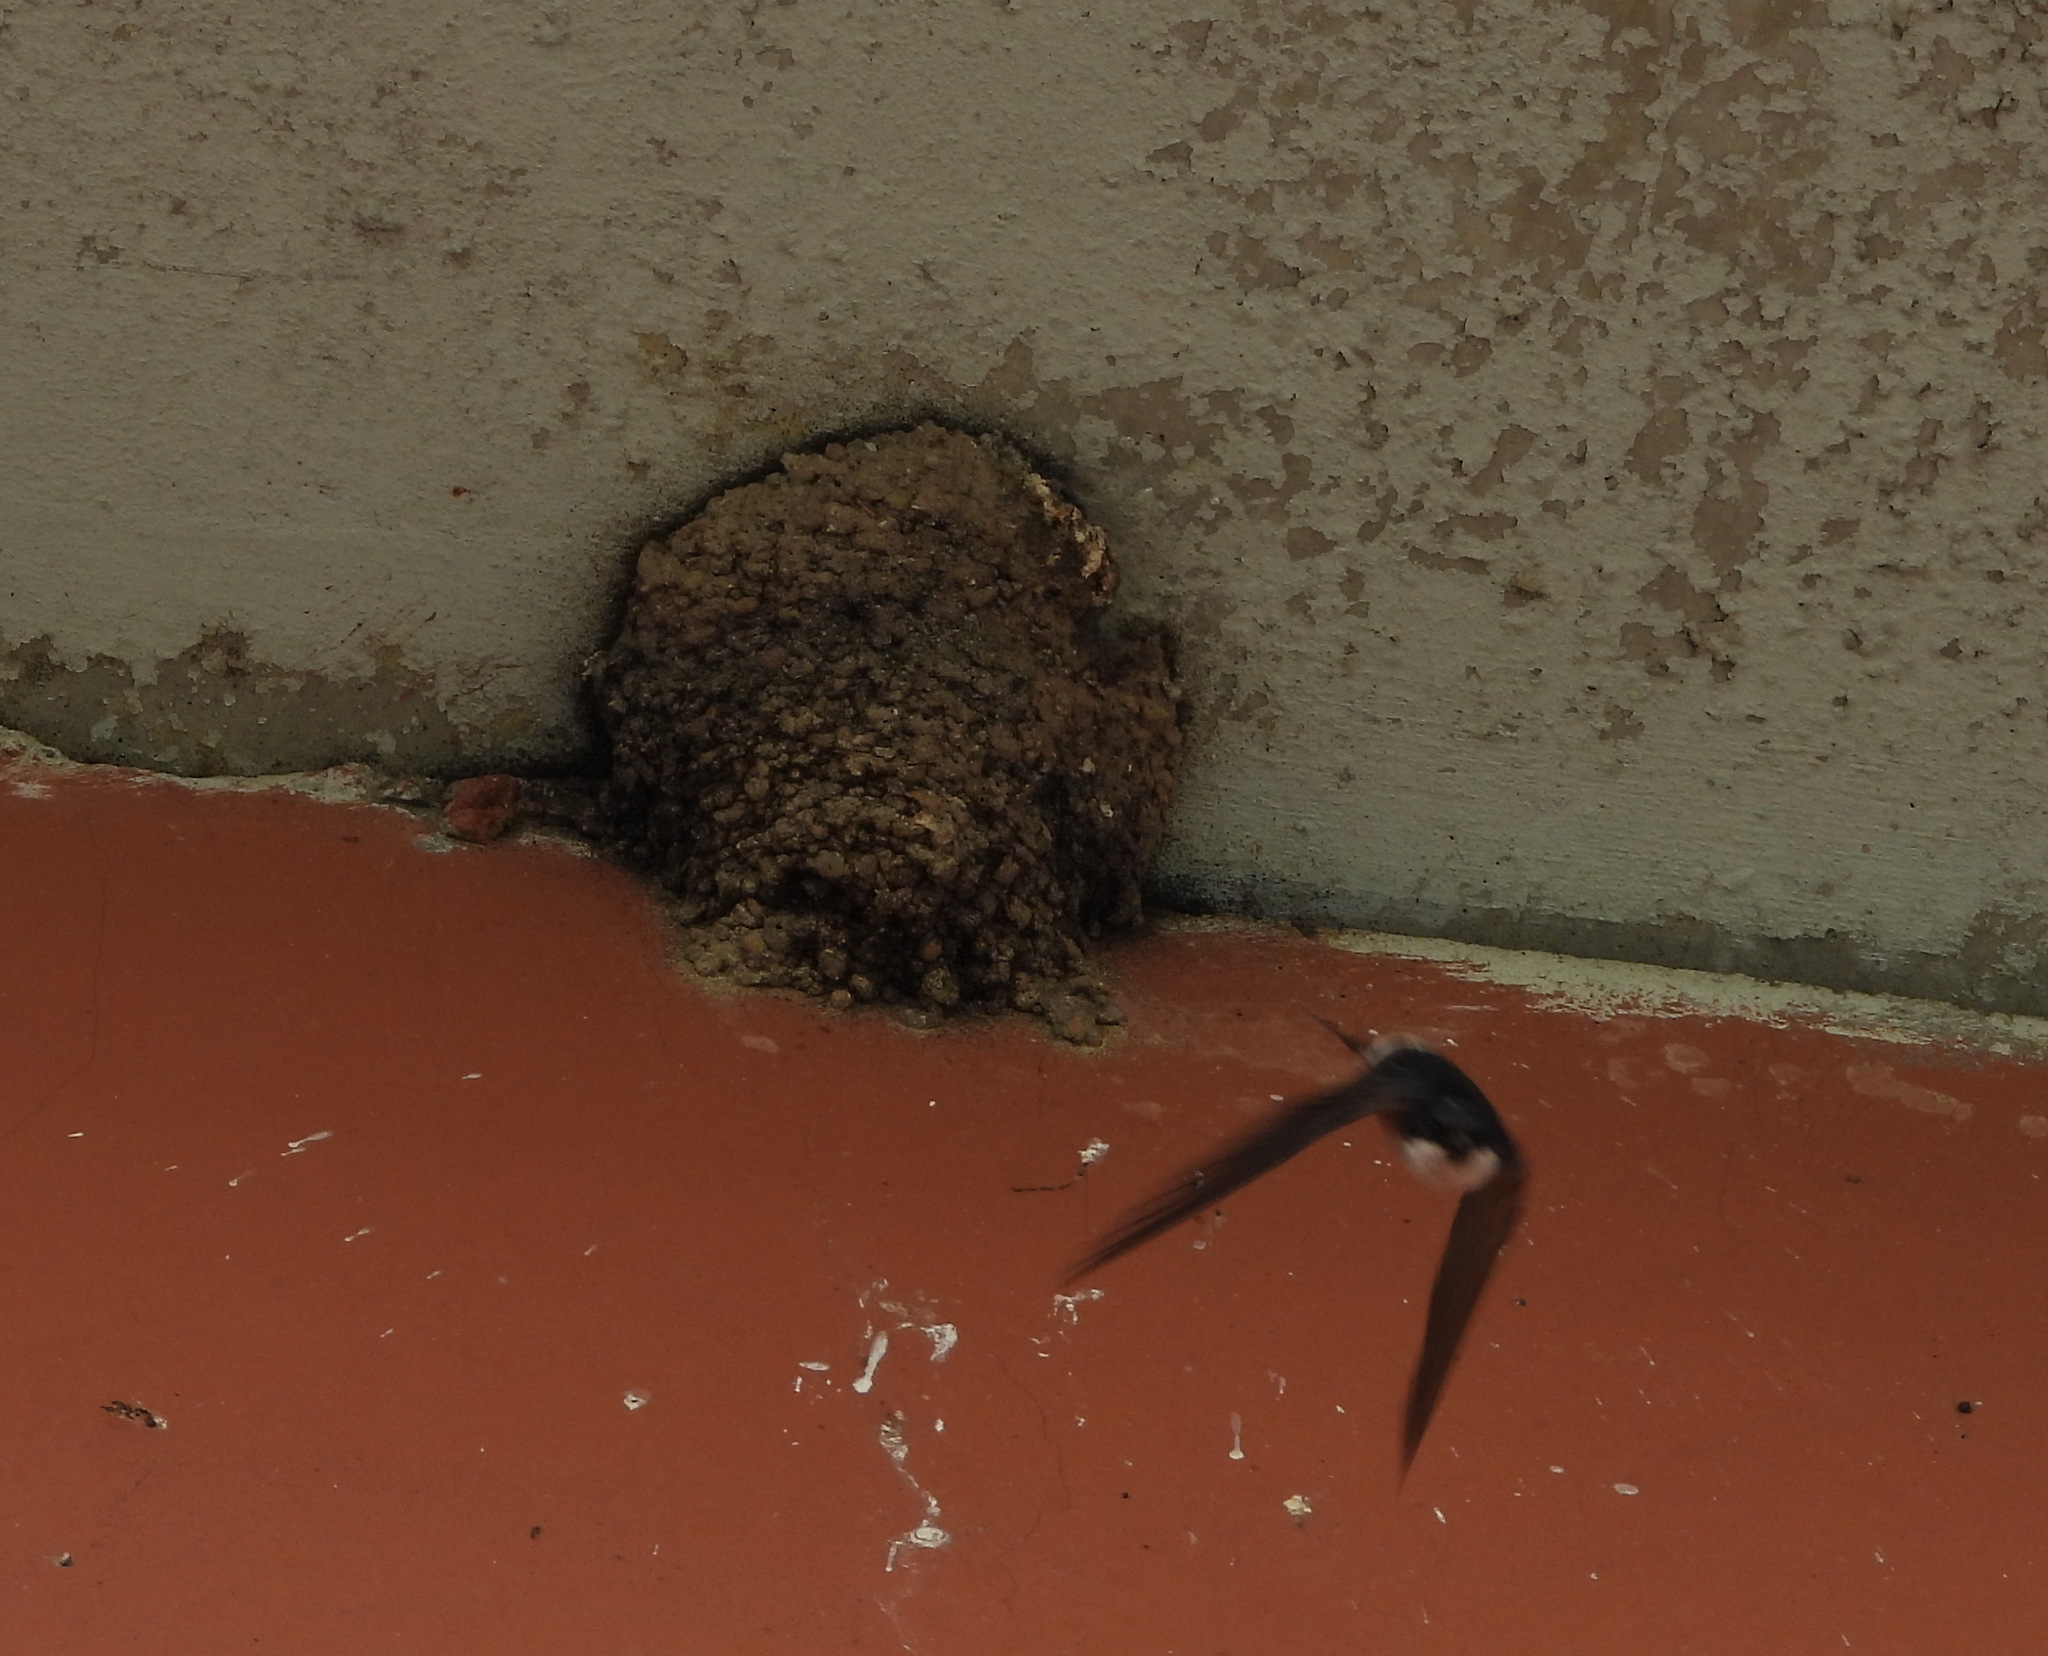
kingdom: Animalia
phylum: Chordata
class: Aves
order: Passeriformes
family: Hirundinidae
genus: Delichon
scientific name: Delichon urbicum
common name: Common house martin
